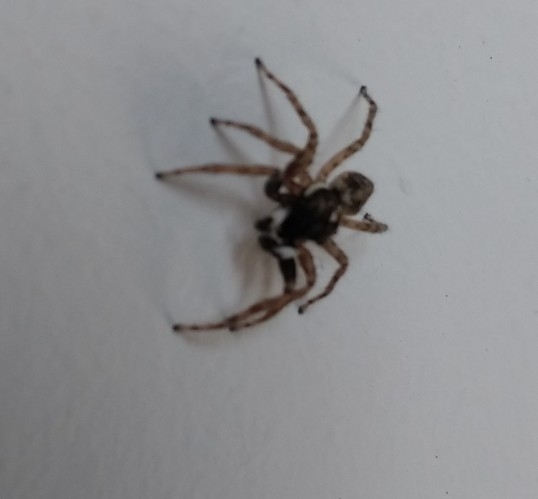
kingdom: Animalia
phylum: Arthropoda
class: Arachnida
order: Araneae
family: Salticidae
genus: Menemerus
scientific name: Menemerus semilimbatus
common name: Jumping spider
